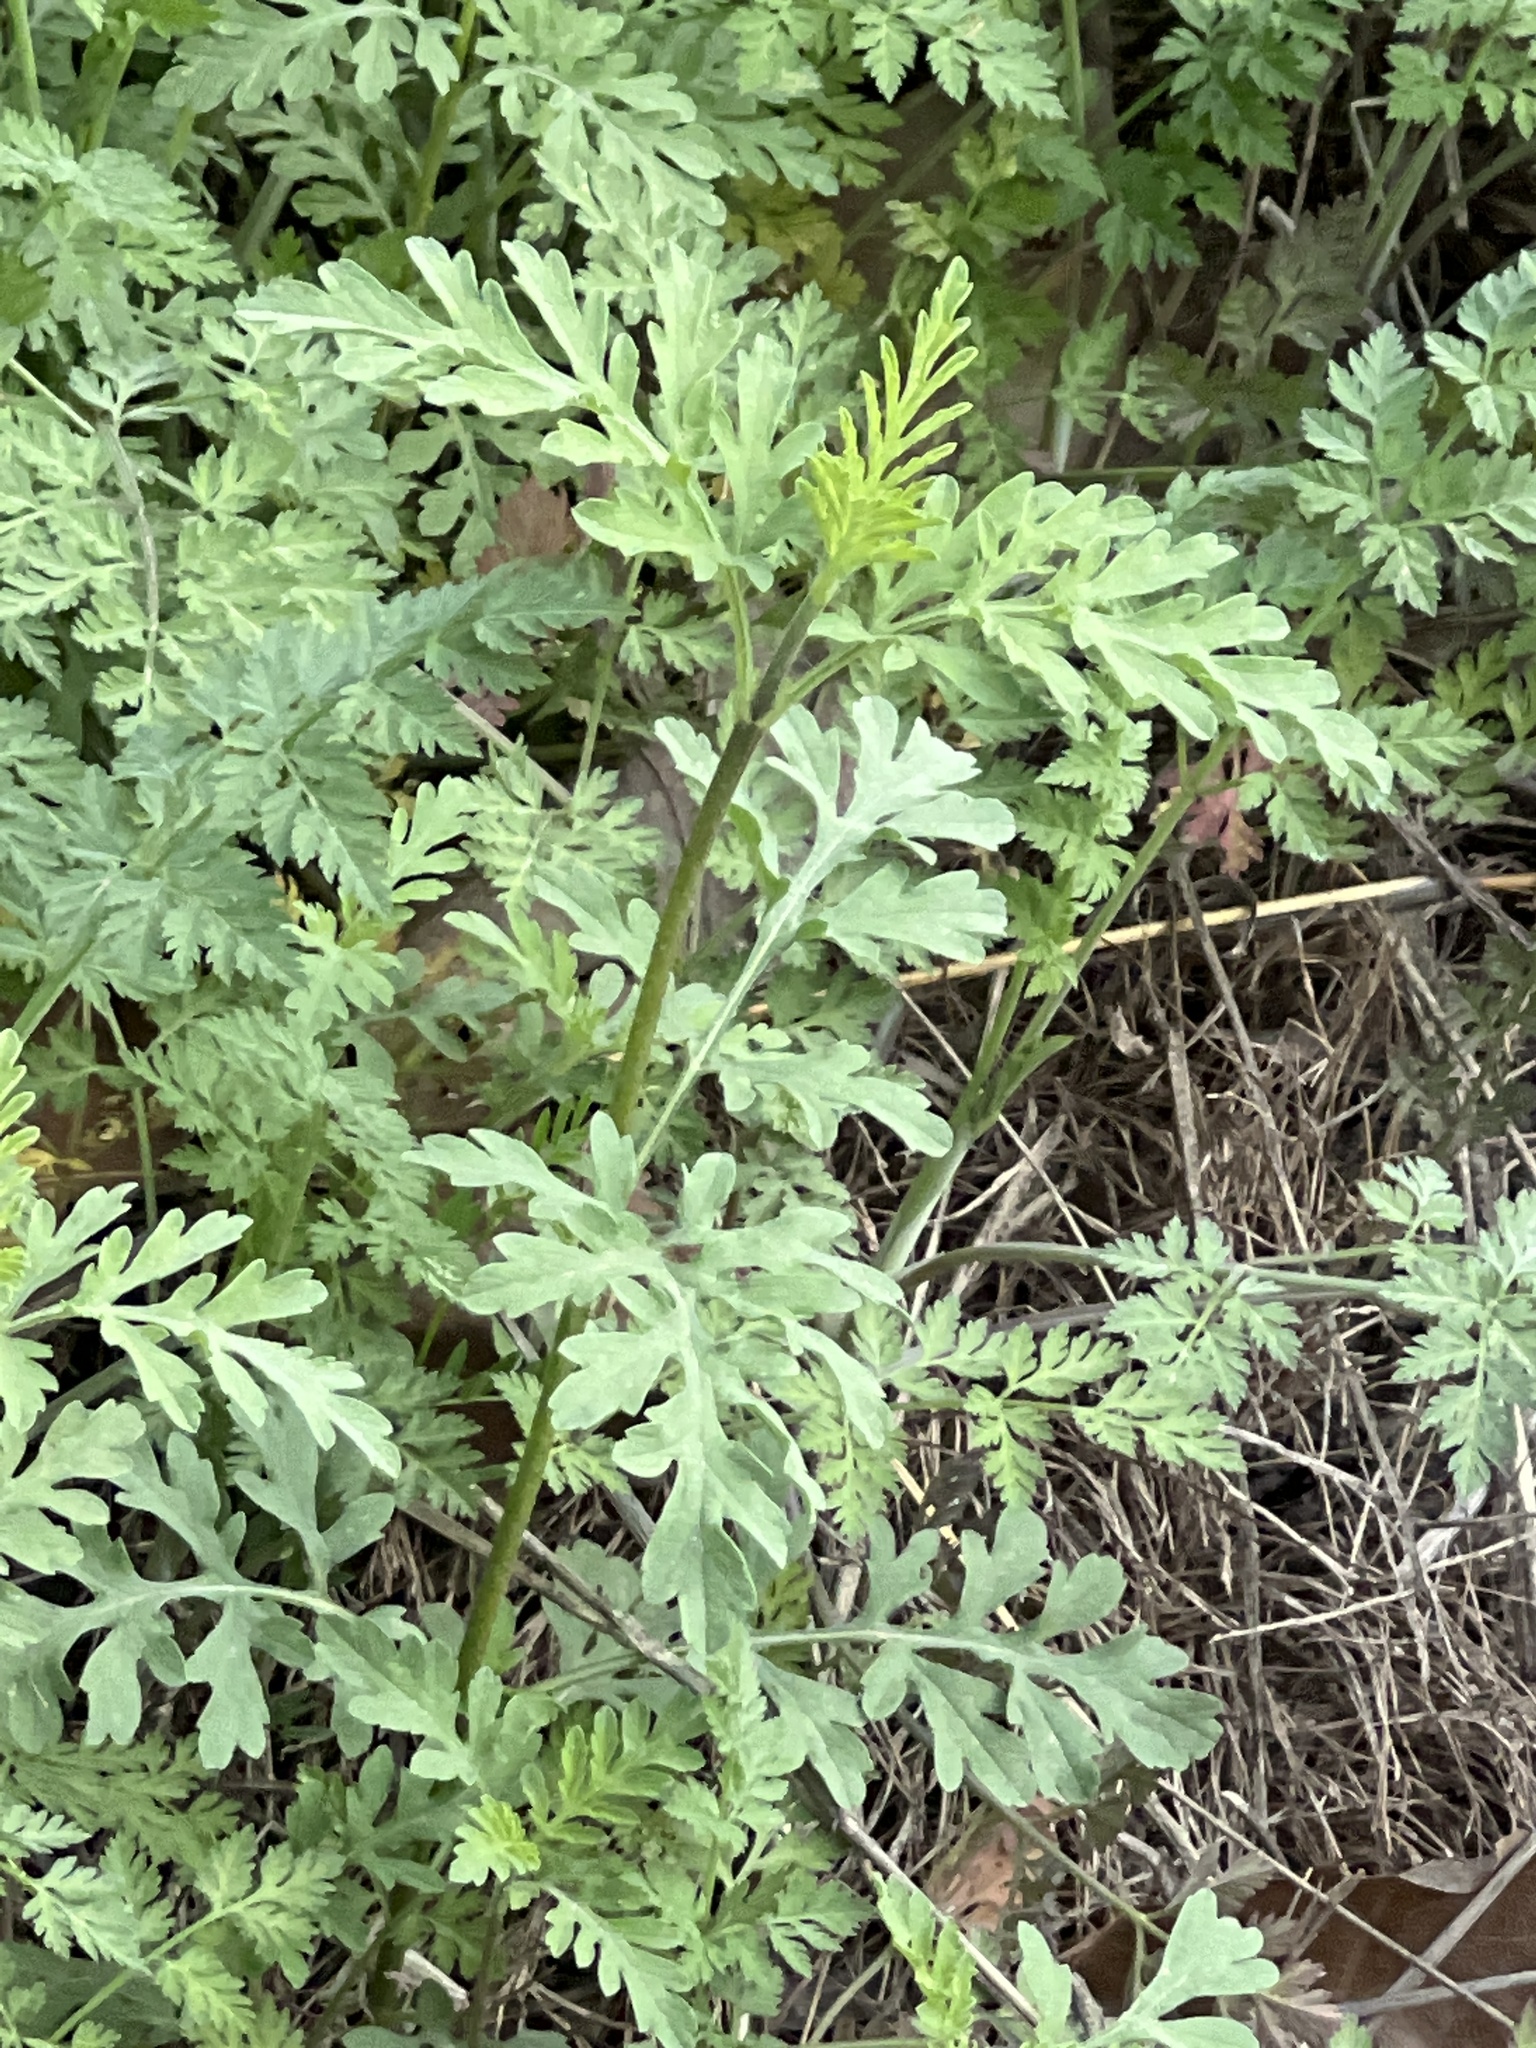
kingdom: Plantae
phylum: Tracheophyta
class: Magnoliopsida
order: Asterales
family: Asteraceae
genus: Ambrosia
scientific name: Ambrosia artemisiifolia
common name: Annual ragweed
